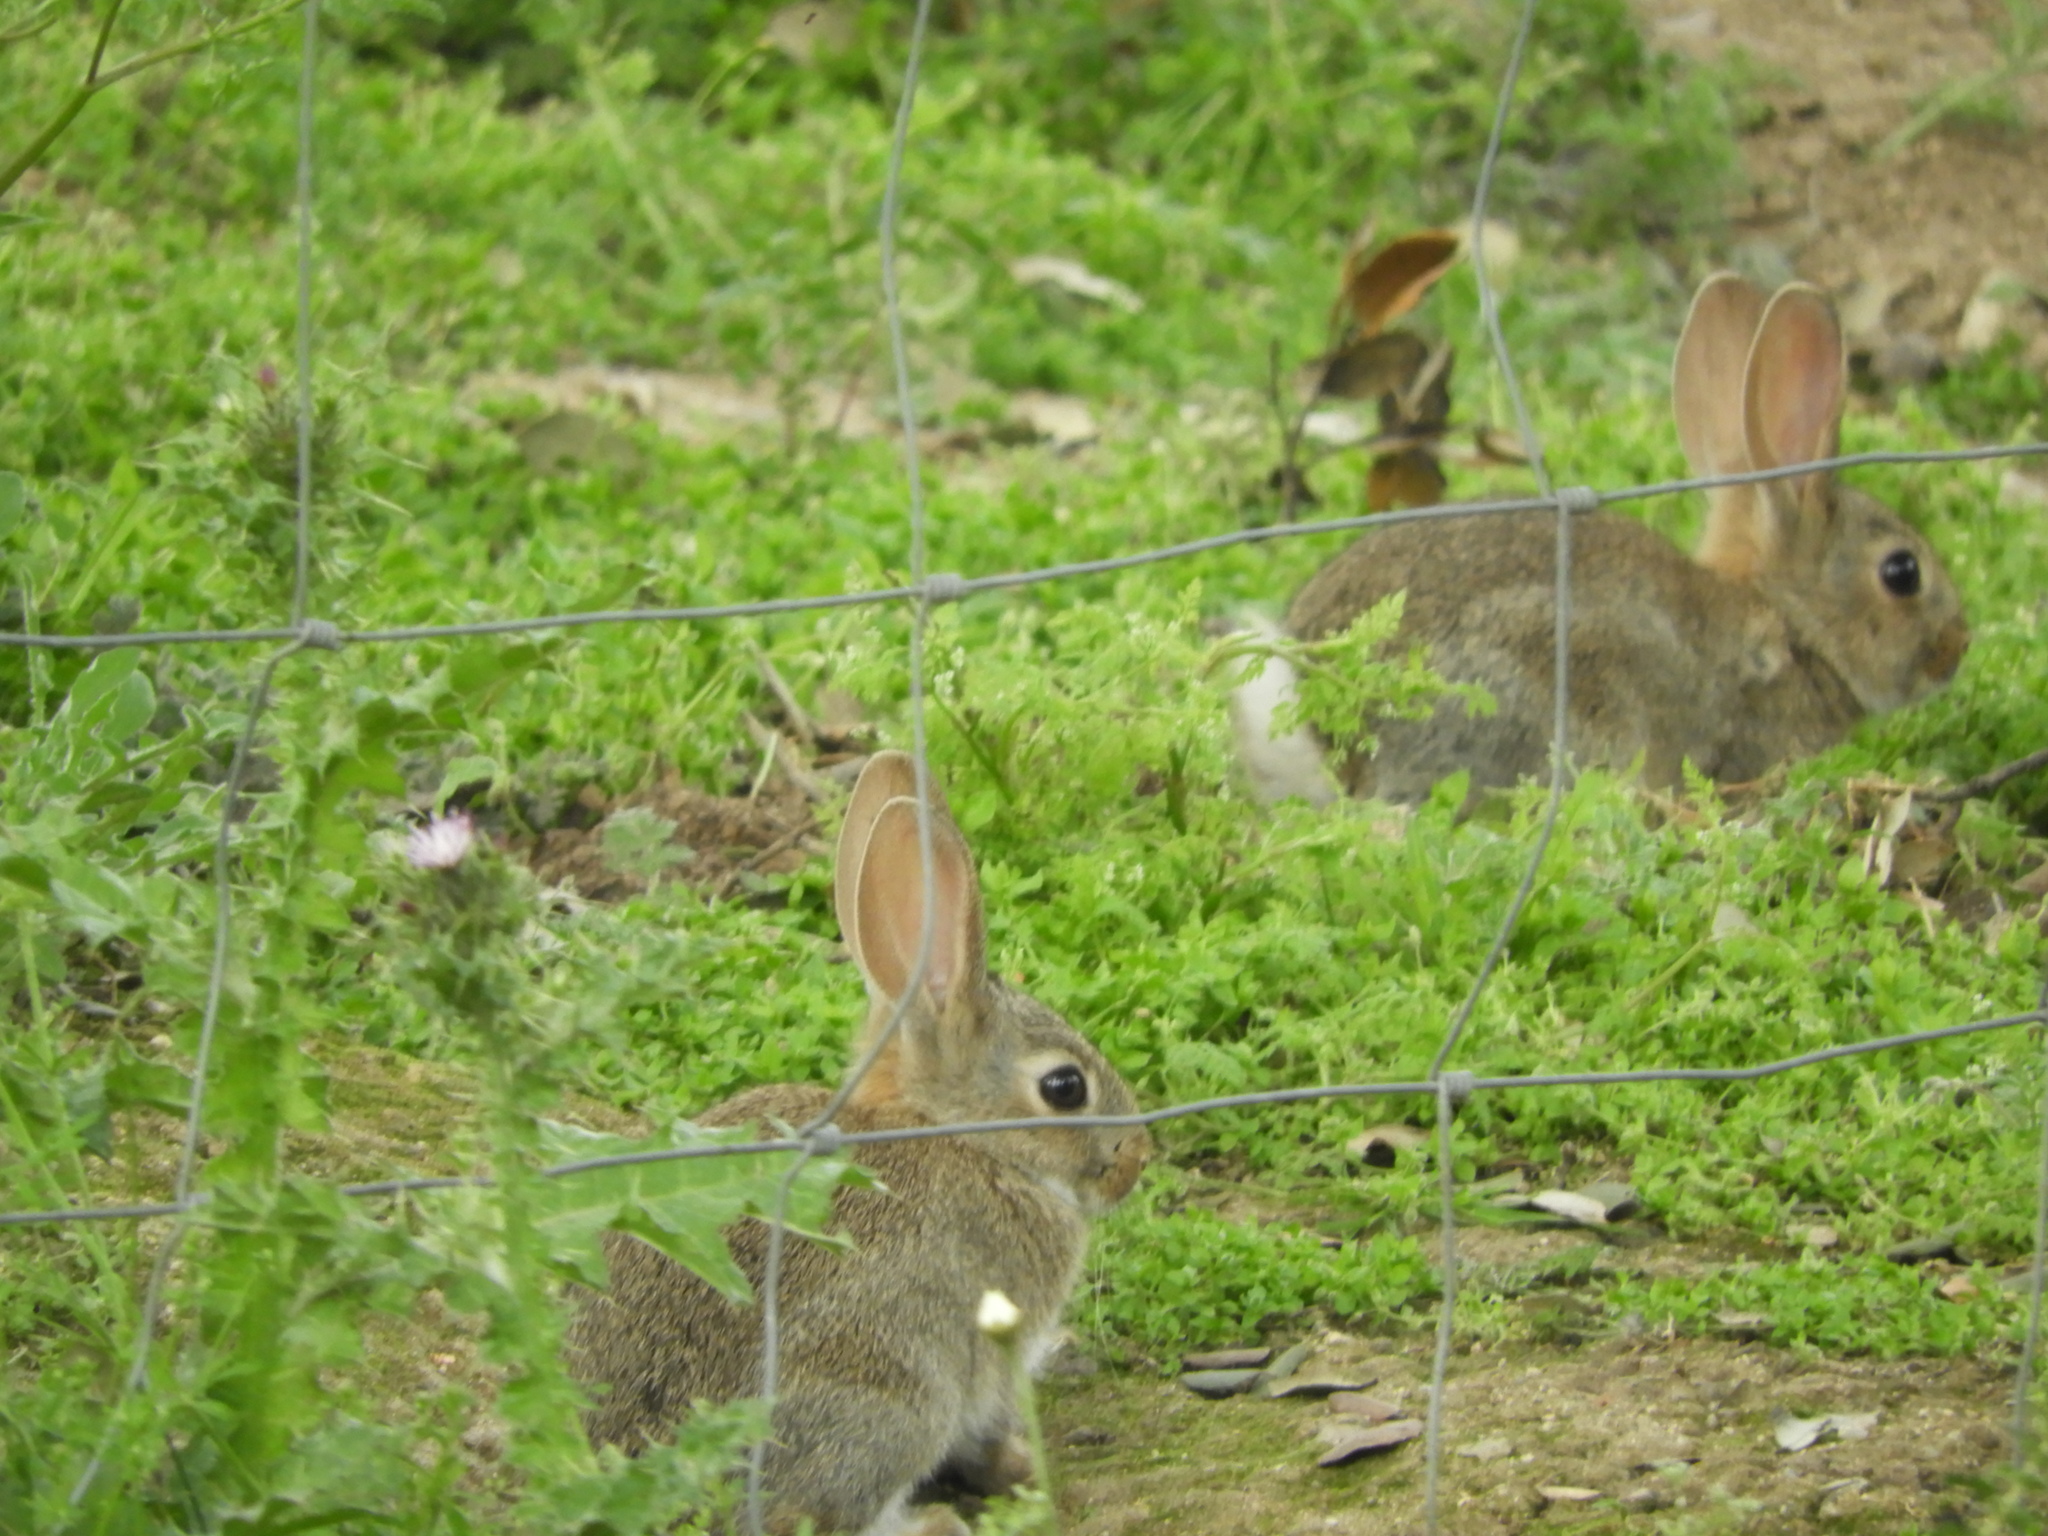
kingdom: Animalia
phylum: Chordata
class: Mammalia
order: Lagomorpha
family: Leporidae
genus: Oryctolagus
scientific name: Oryctolagus cuniculus
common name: European rabbit
